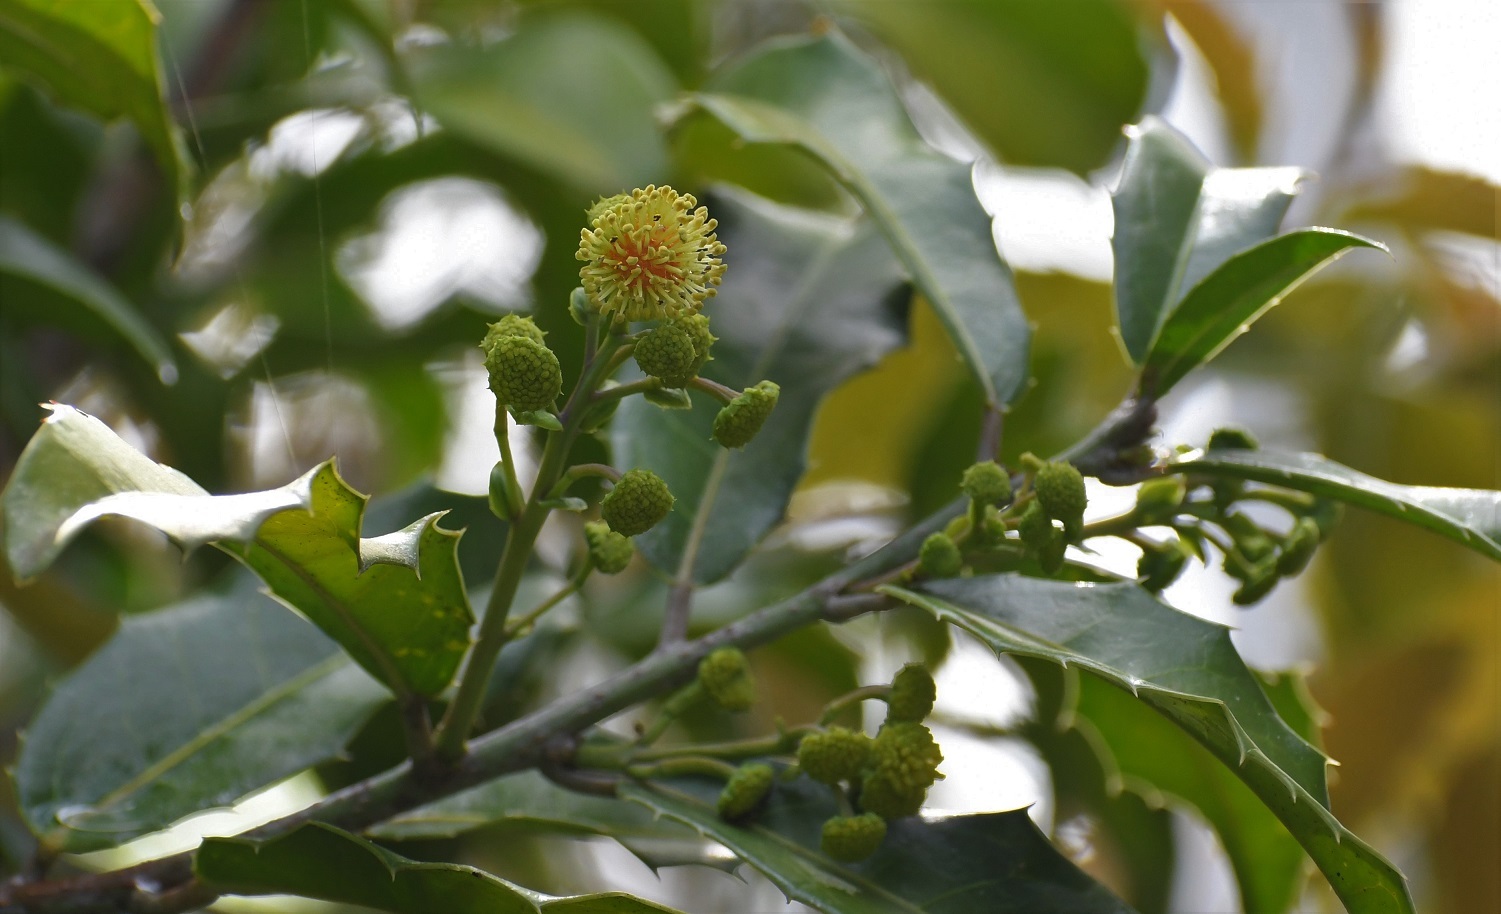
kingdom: Plantae
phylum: Tracheophyta
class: Magnoliopsida
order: Malpighiales
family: Salicaceae
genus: Olmediella
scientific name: Olmediella betschleriana
